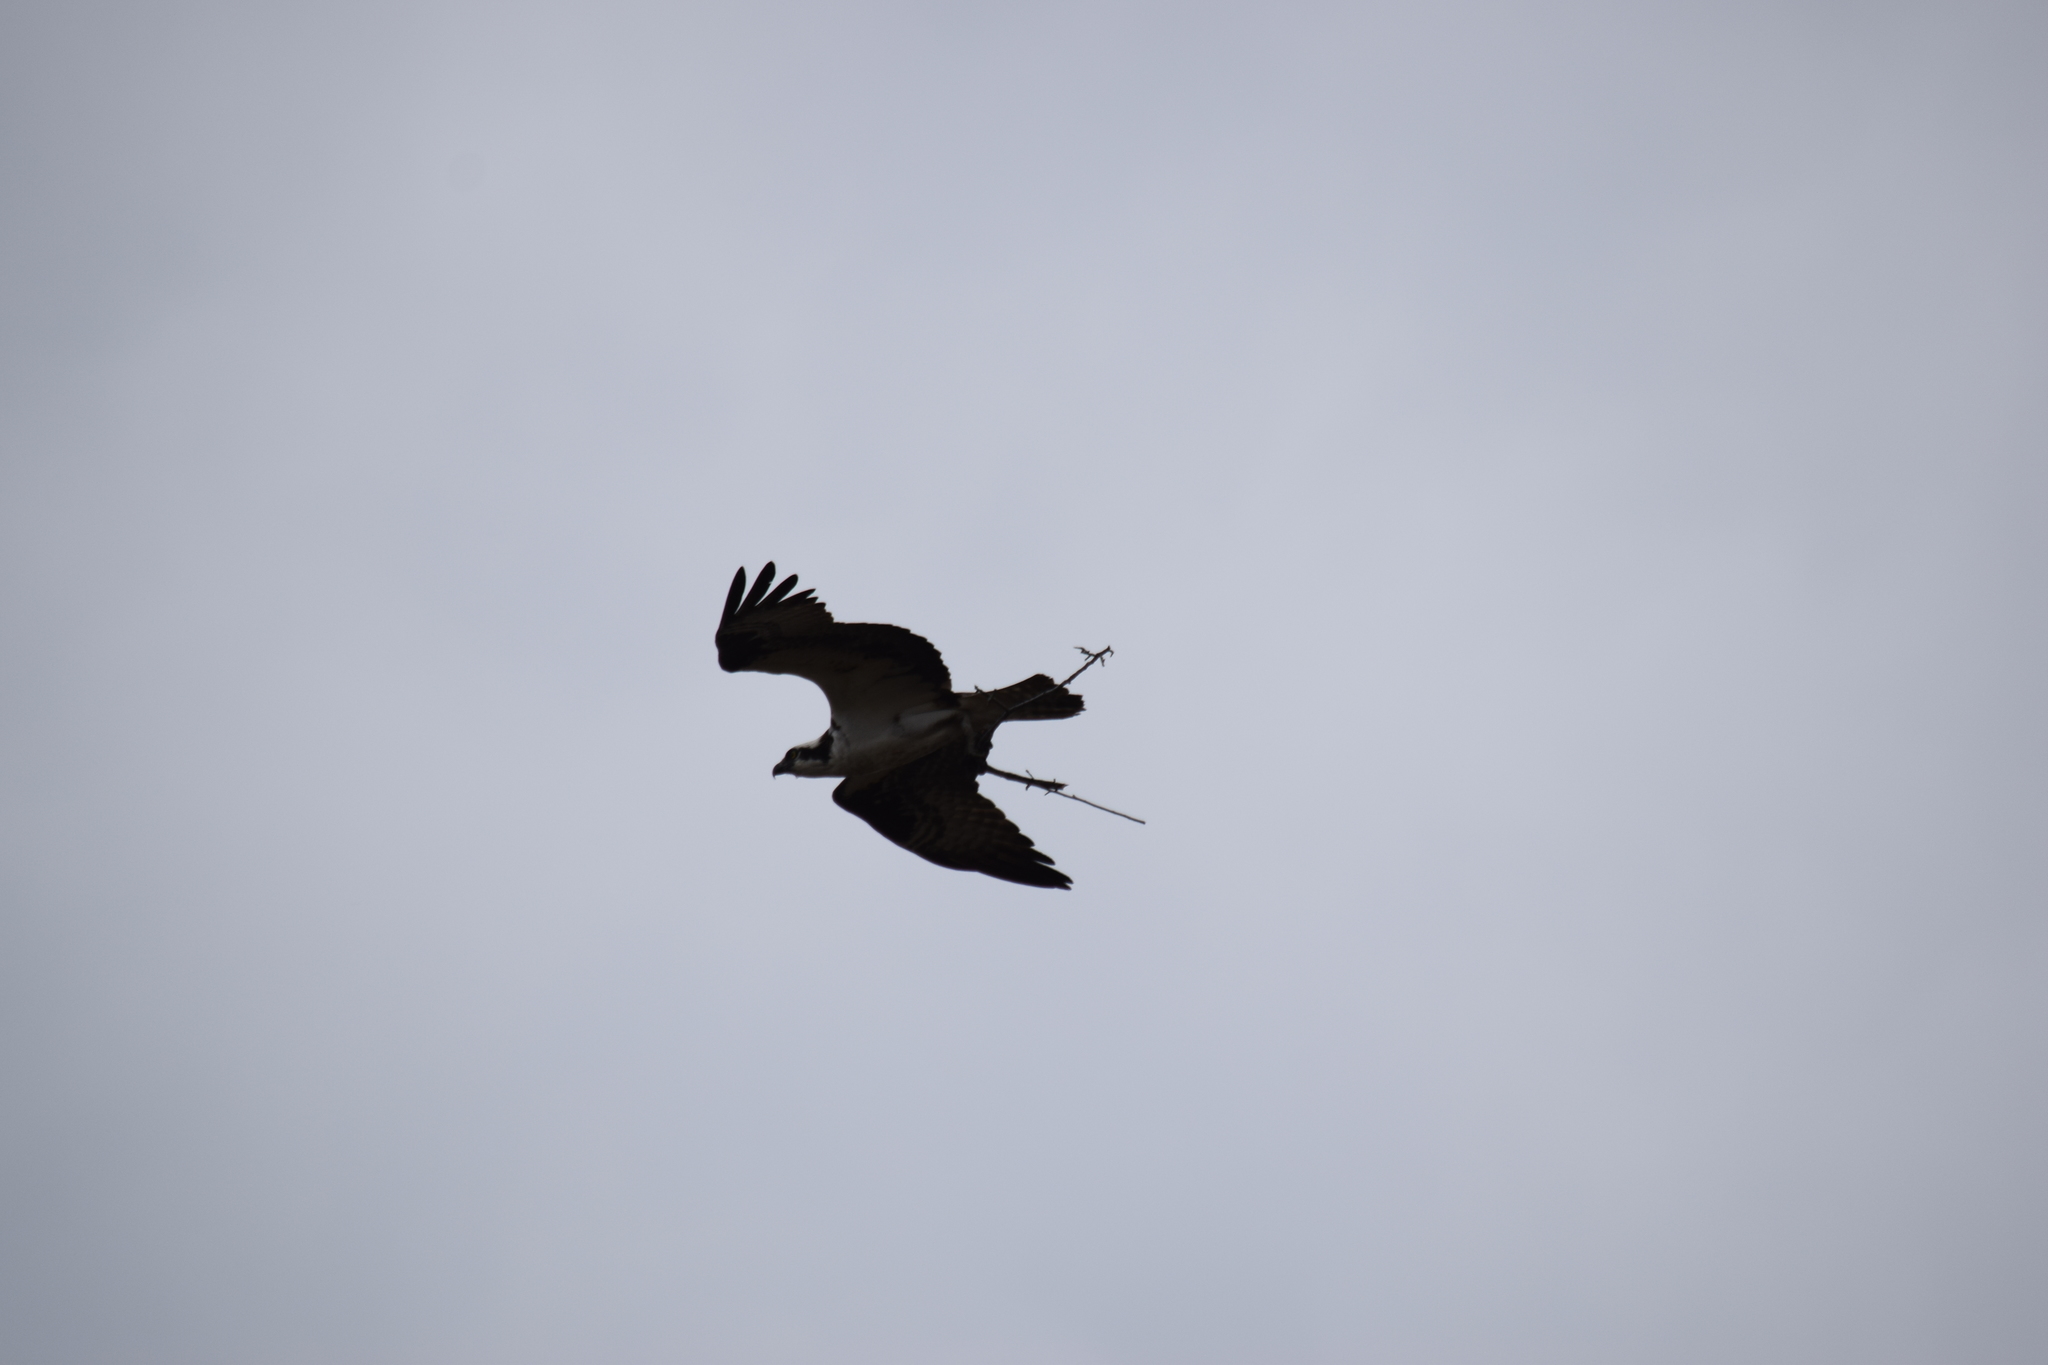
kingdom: Animalia
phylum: Chordata
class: Aves
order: Accipitriformes
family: Pandionidae
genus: Pandion
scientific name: Pandion haliaetus
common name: Osprey
